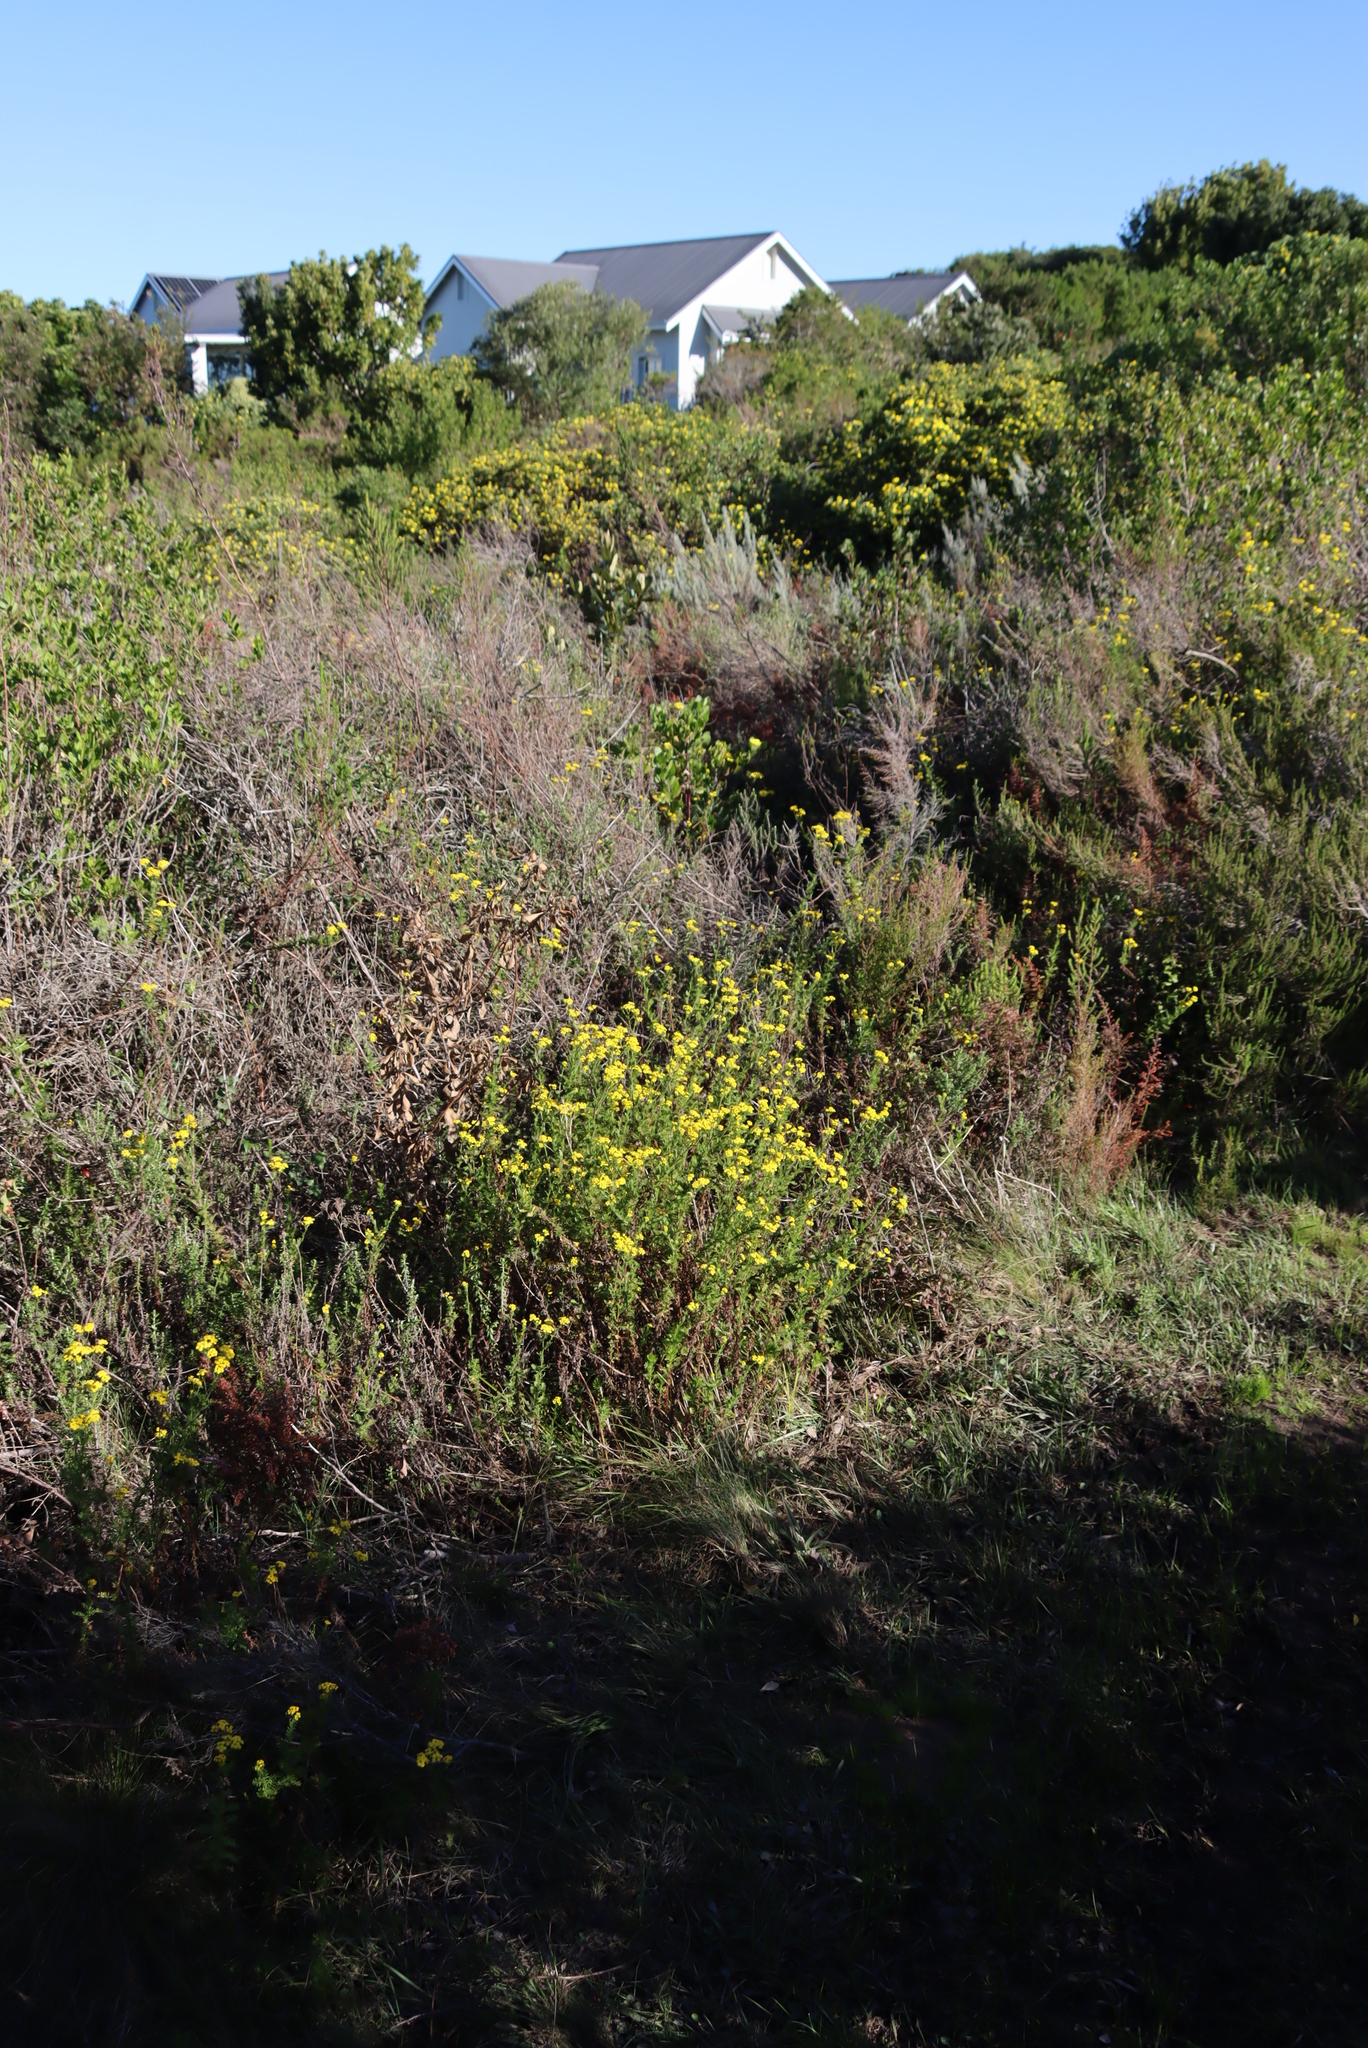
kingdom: Plantae
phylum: Tracheophyta
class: Magnoliopsida
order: Asterales
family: Asteraceae
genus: Hippia
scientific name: Hippia frutescens
